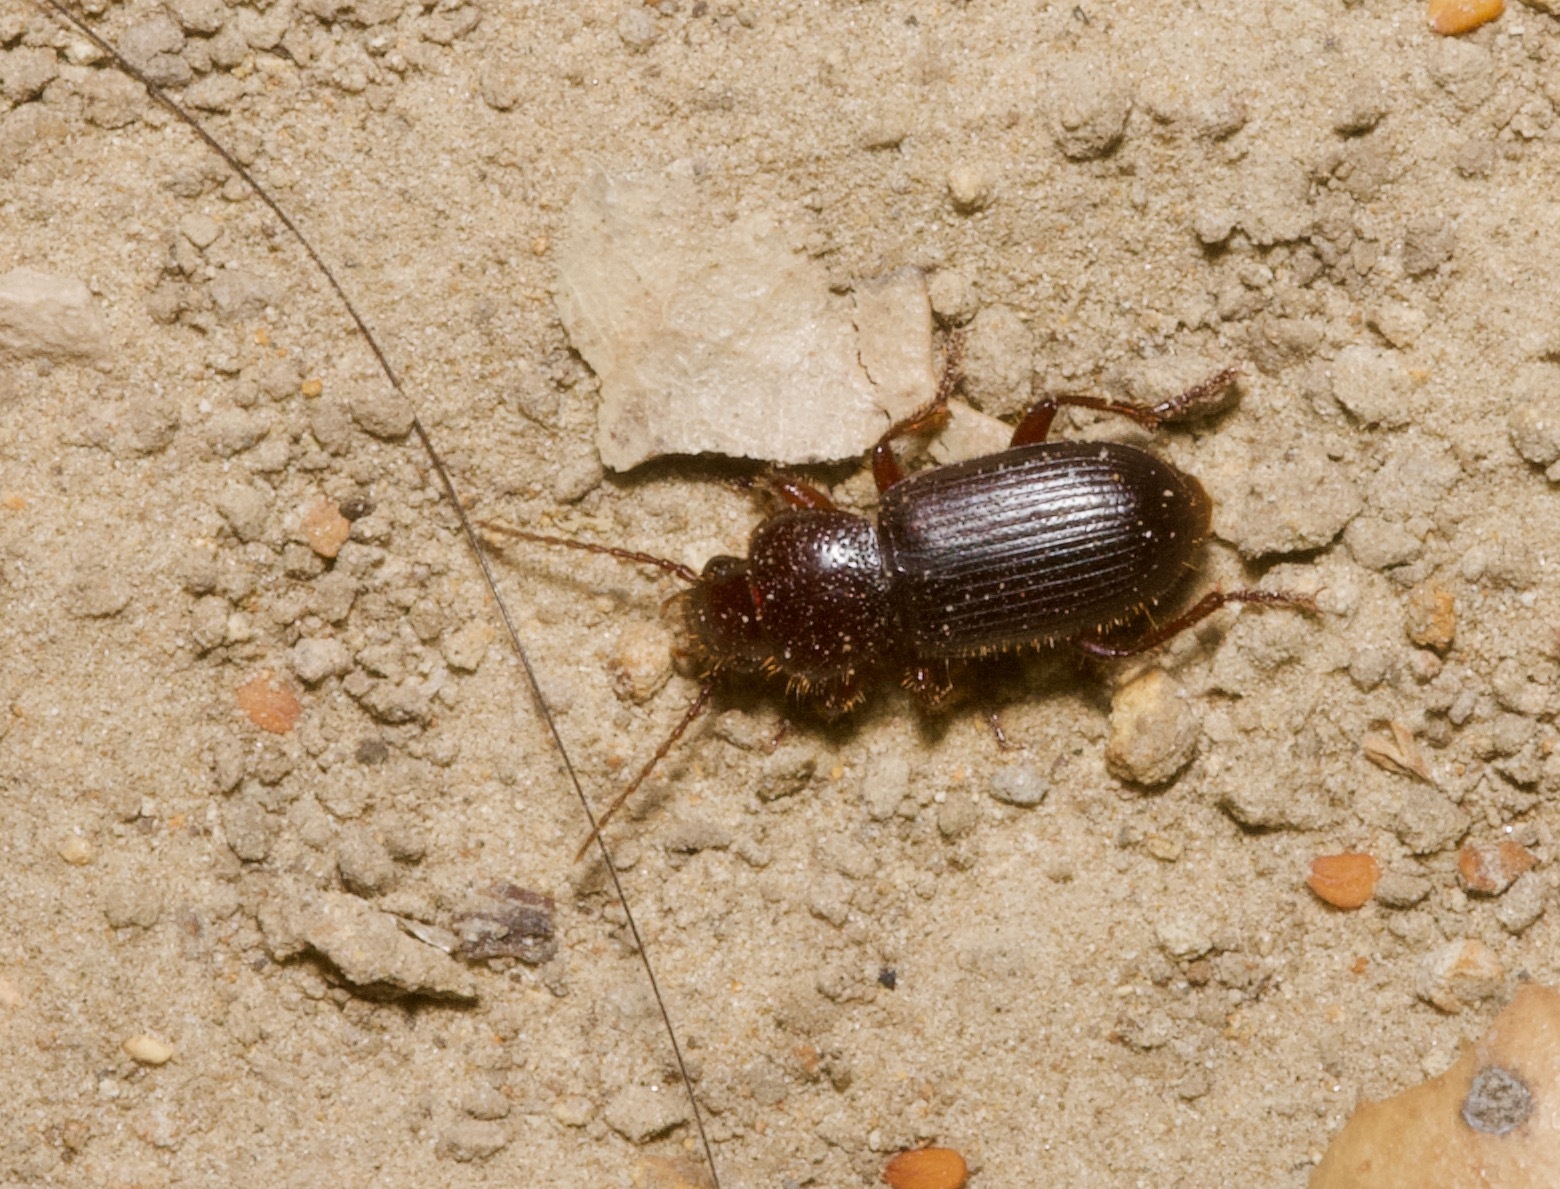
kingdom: Animalia
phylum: Arthropoda
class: Insecta
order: Coleoptera
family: Carabidae
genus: Dicheirus
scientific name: Dicheirus piceus
